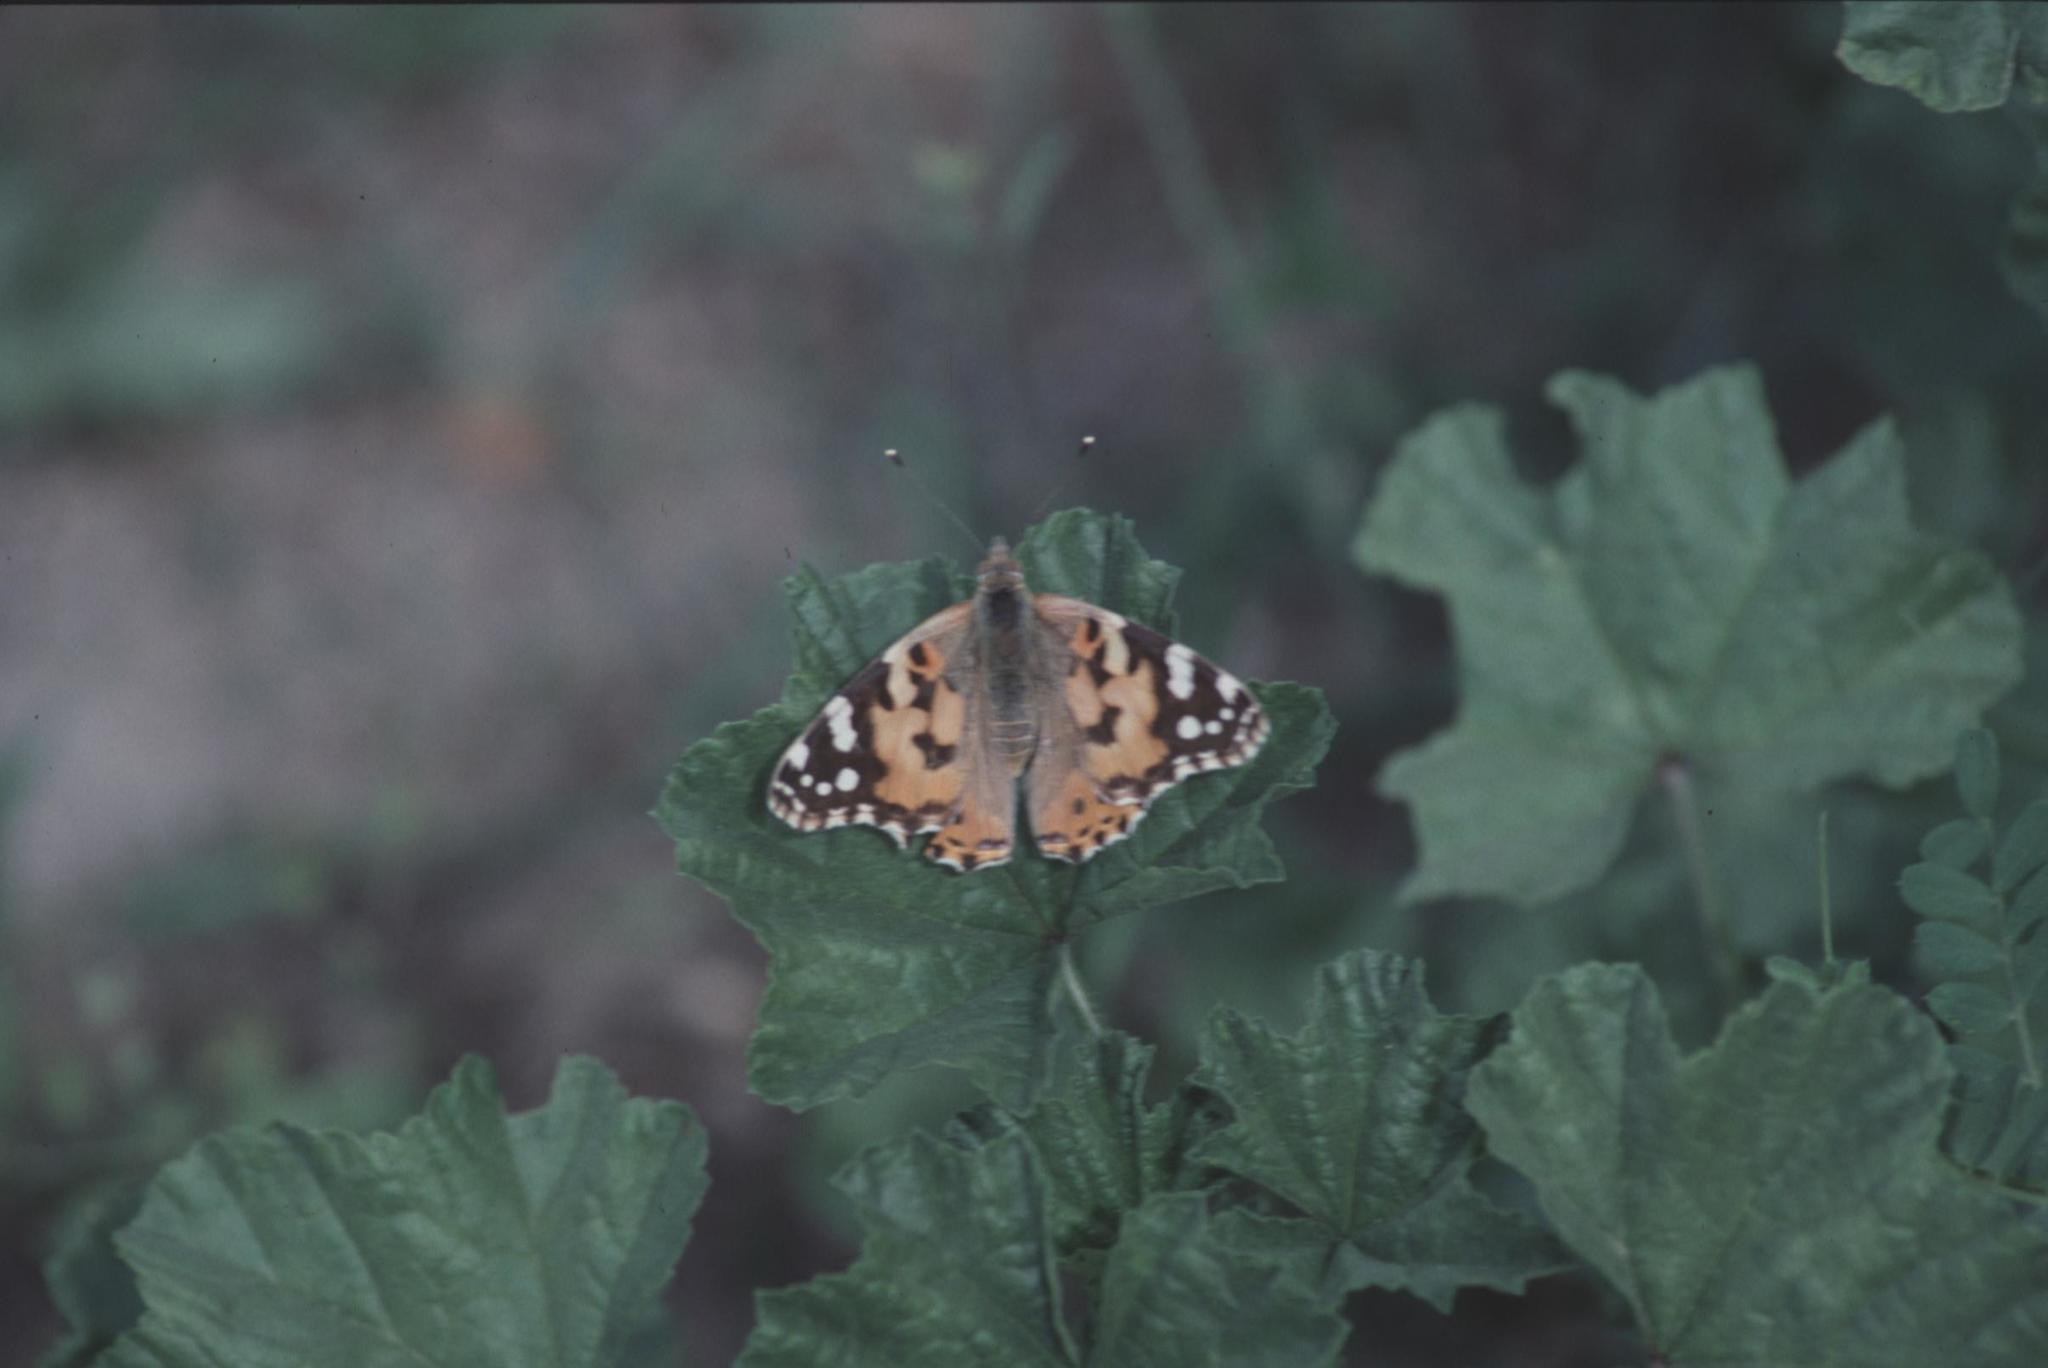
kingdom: Animalia
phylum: Arthropoda
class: Insecta
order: Lepidoptera
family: Nymphalidae
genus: Vanessa
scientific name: Vanessa cardui
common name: Painted lady
